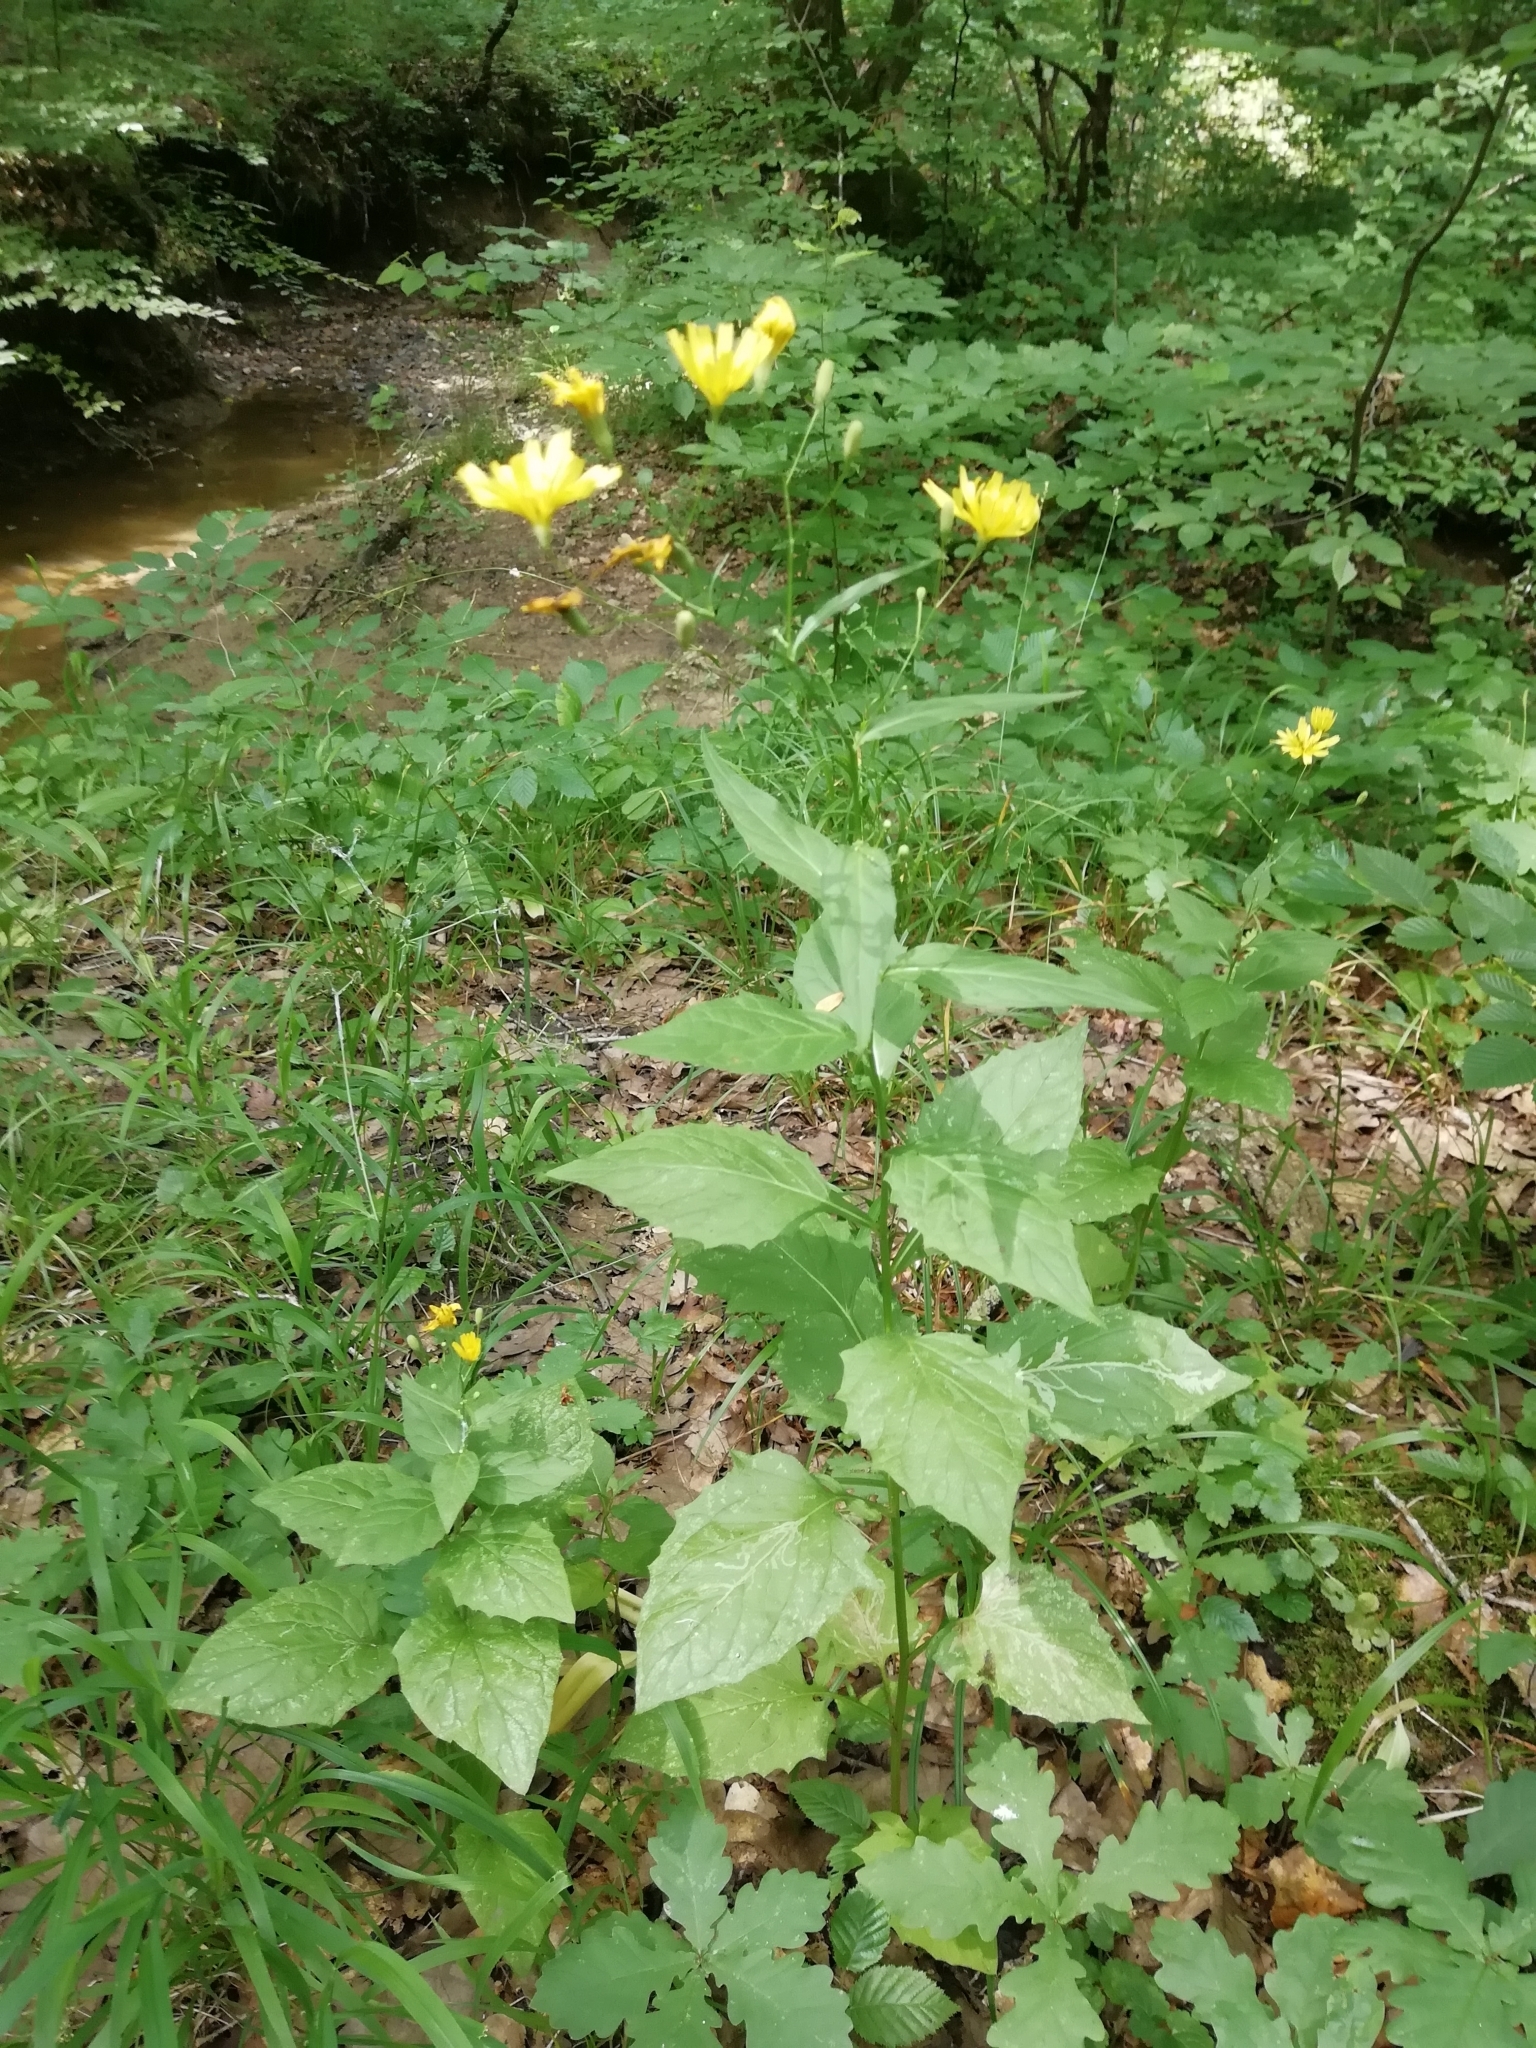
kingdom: Plantae
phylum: Tracheophyta
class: Magnoliopsida
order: Asterales
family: Asteraceae
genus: Lapsana
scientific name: Lapsana communis
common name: Nipplewort
